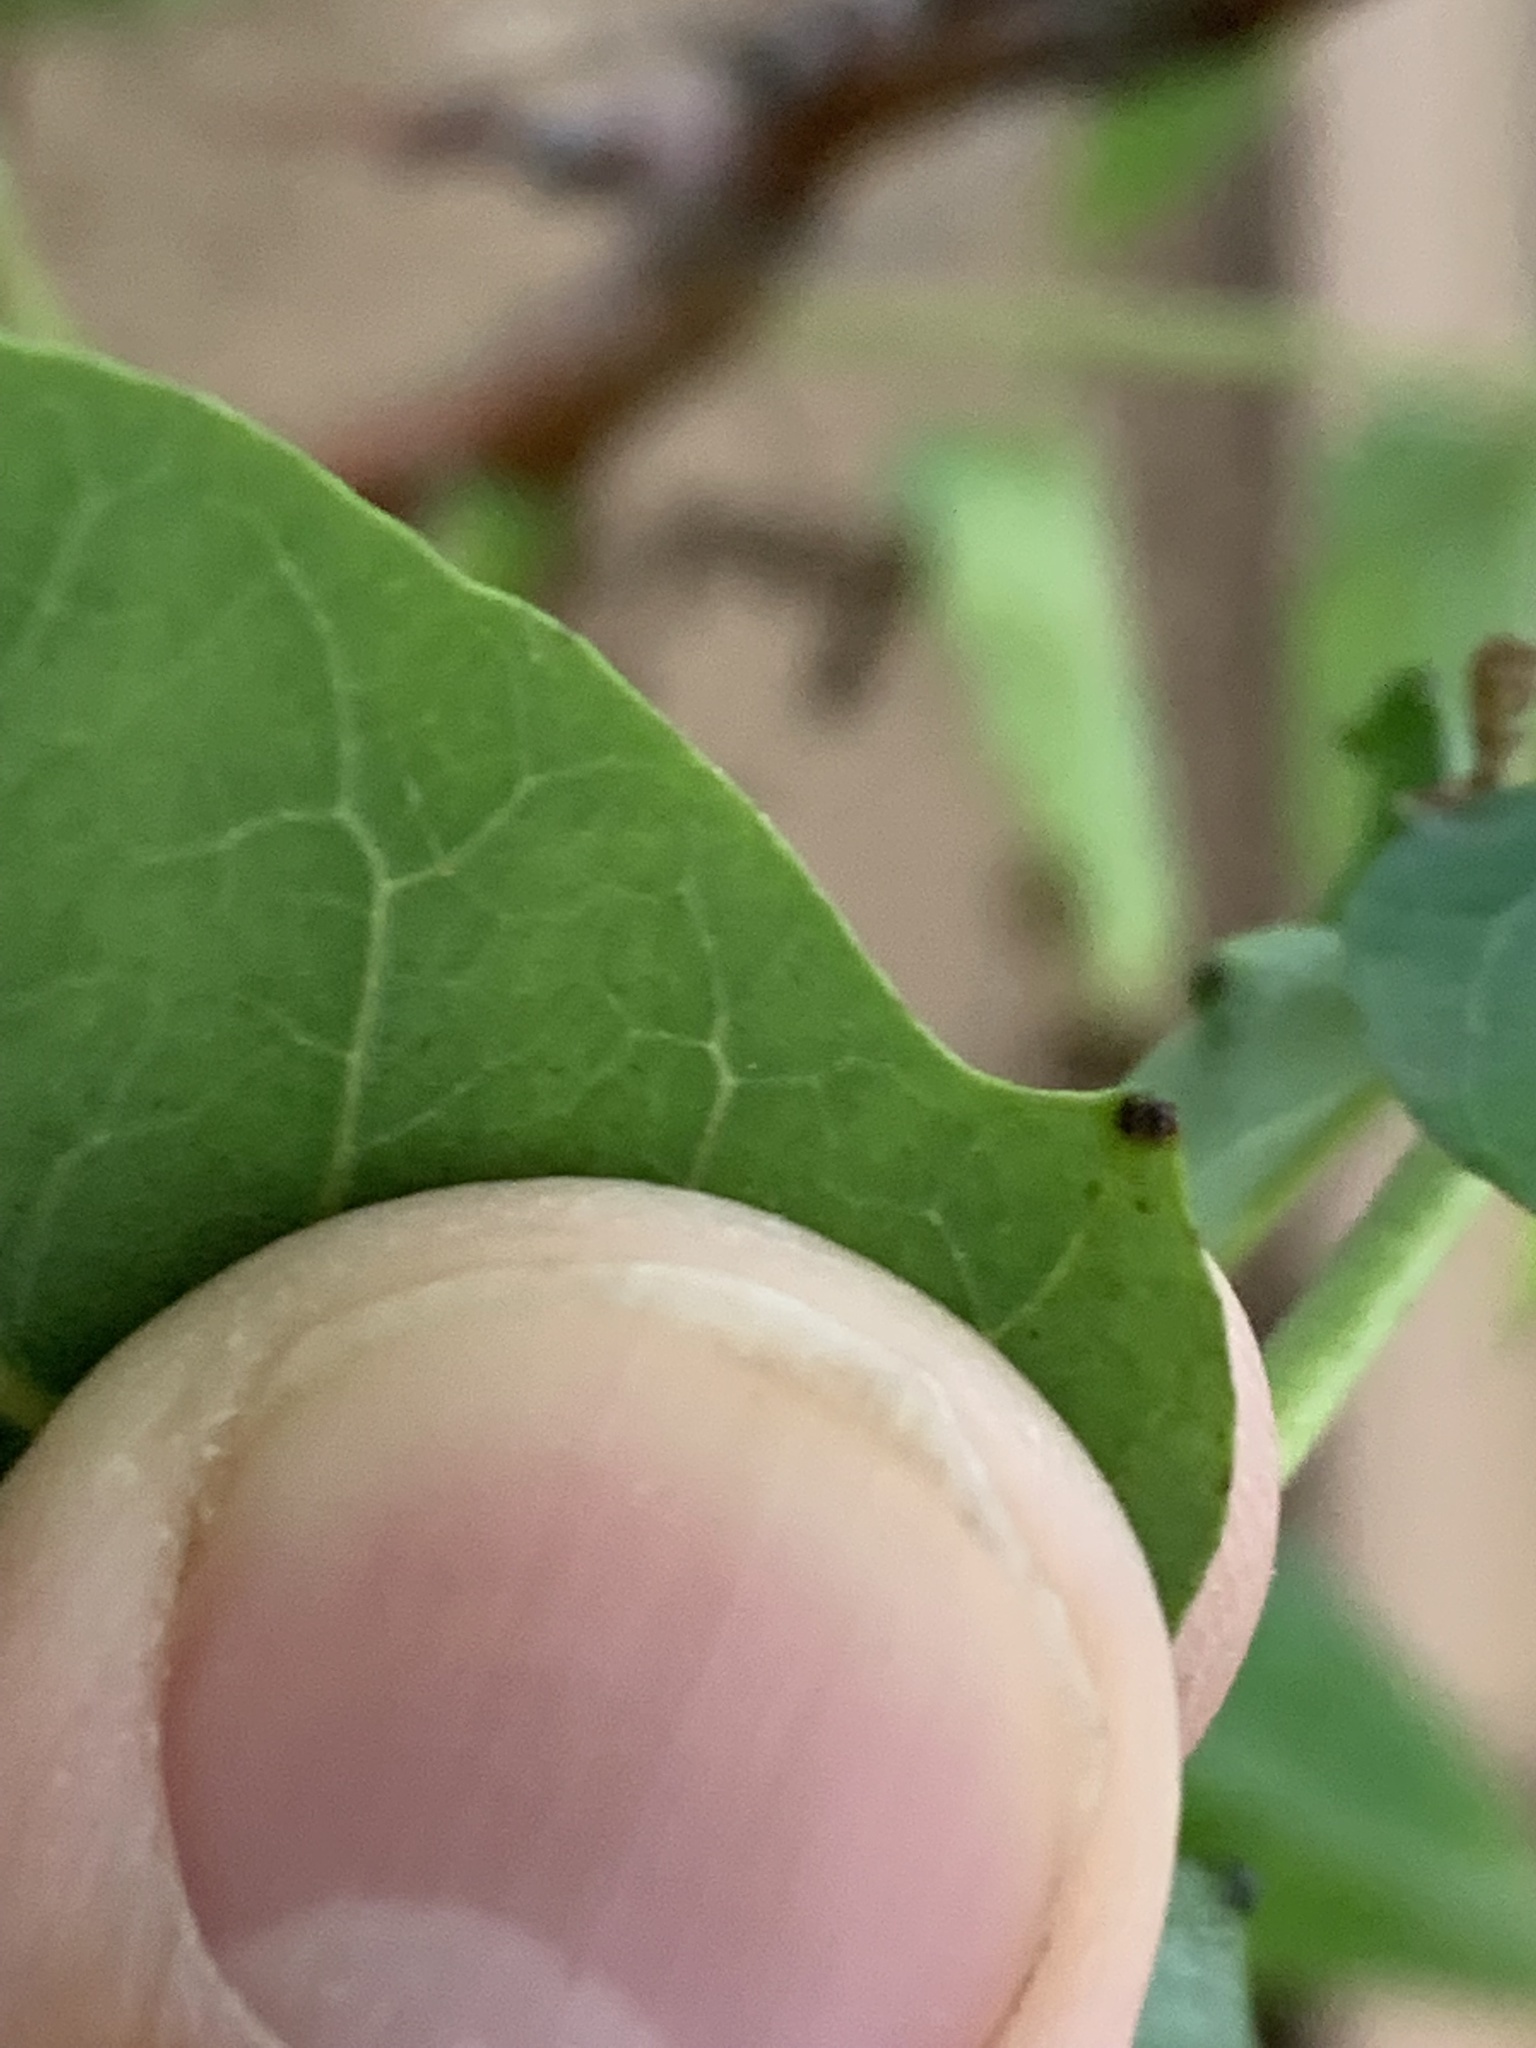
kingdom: Plantae
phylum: Tracheophyta
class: Magnoliopsida
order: Sapindales
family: Simaroubaceae
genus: Ailanthus
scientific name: Ailanthus altissima
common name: Tree-of-heaven
